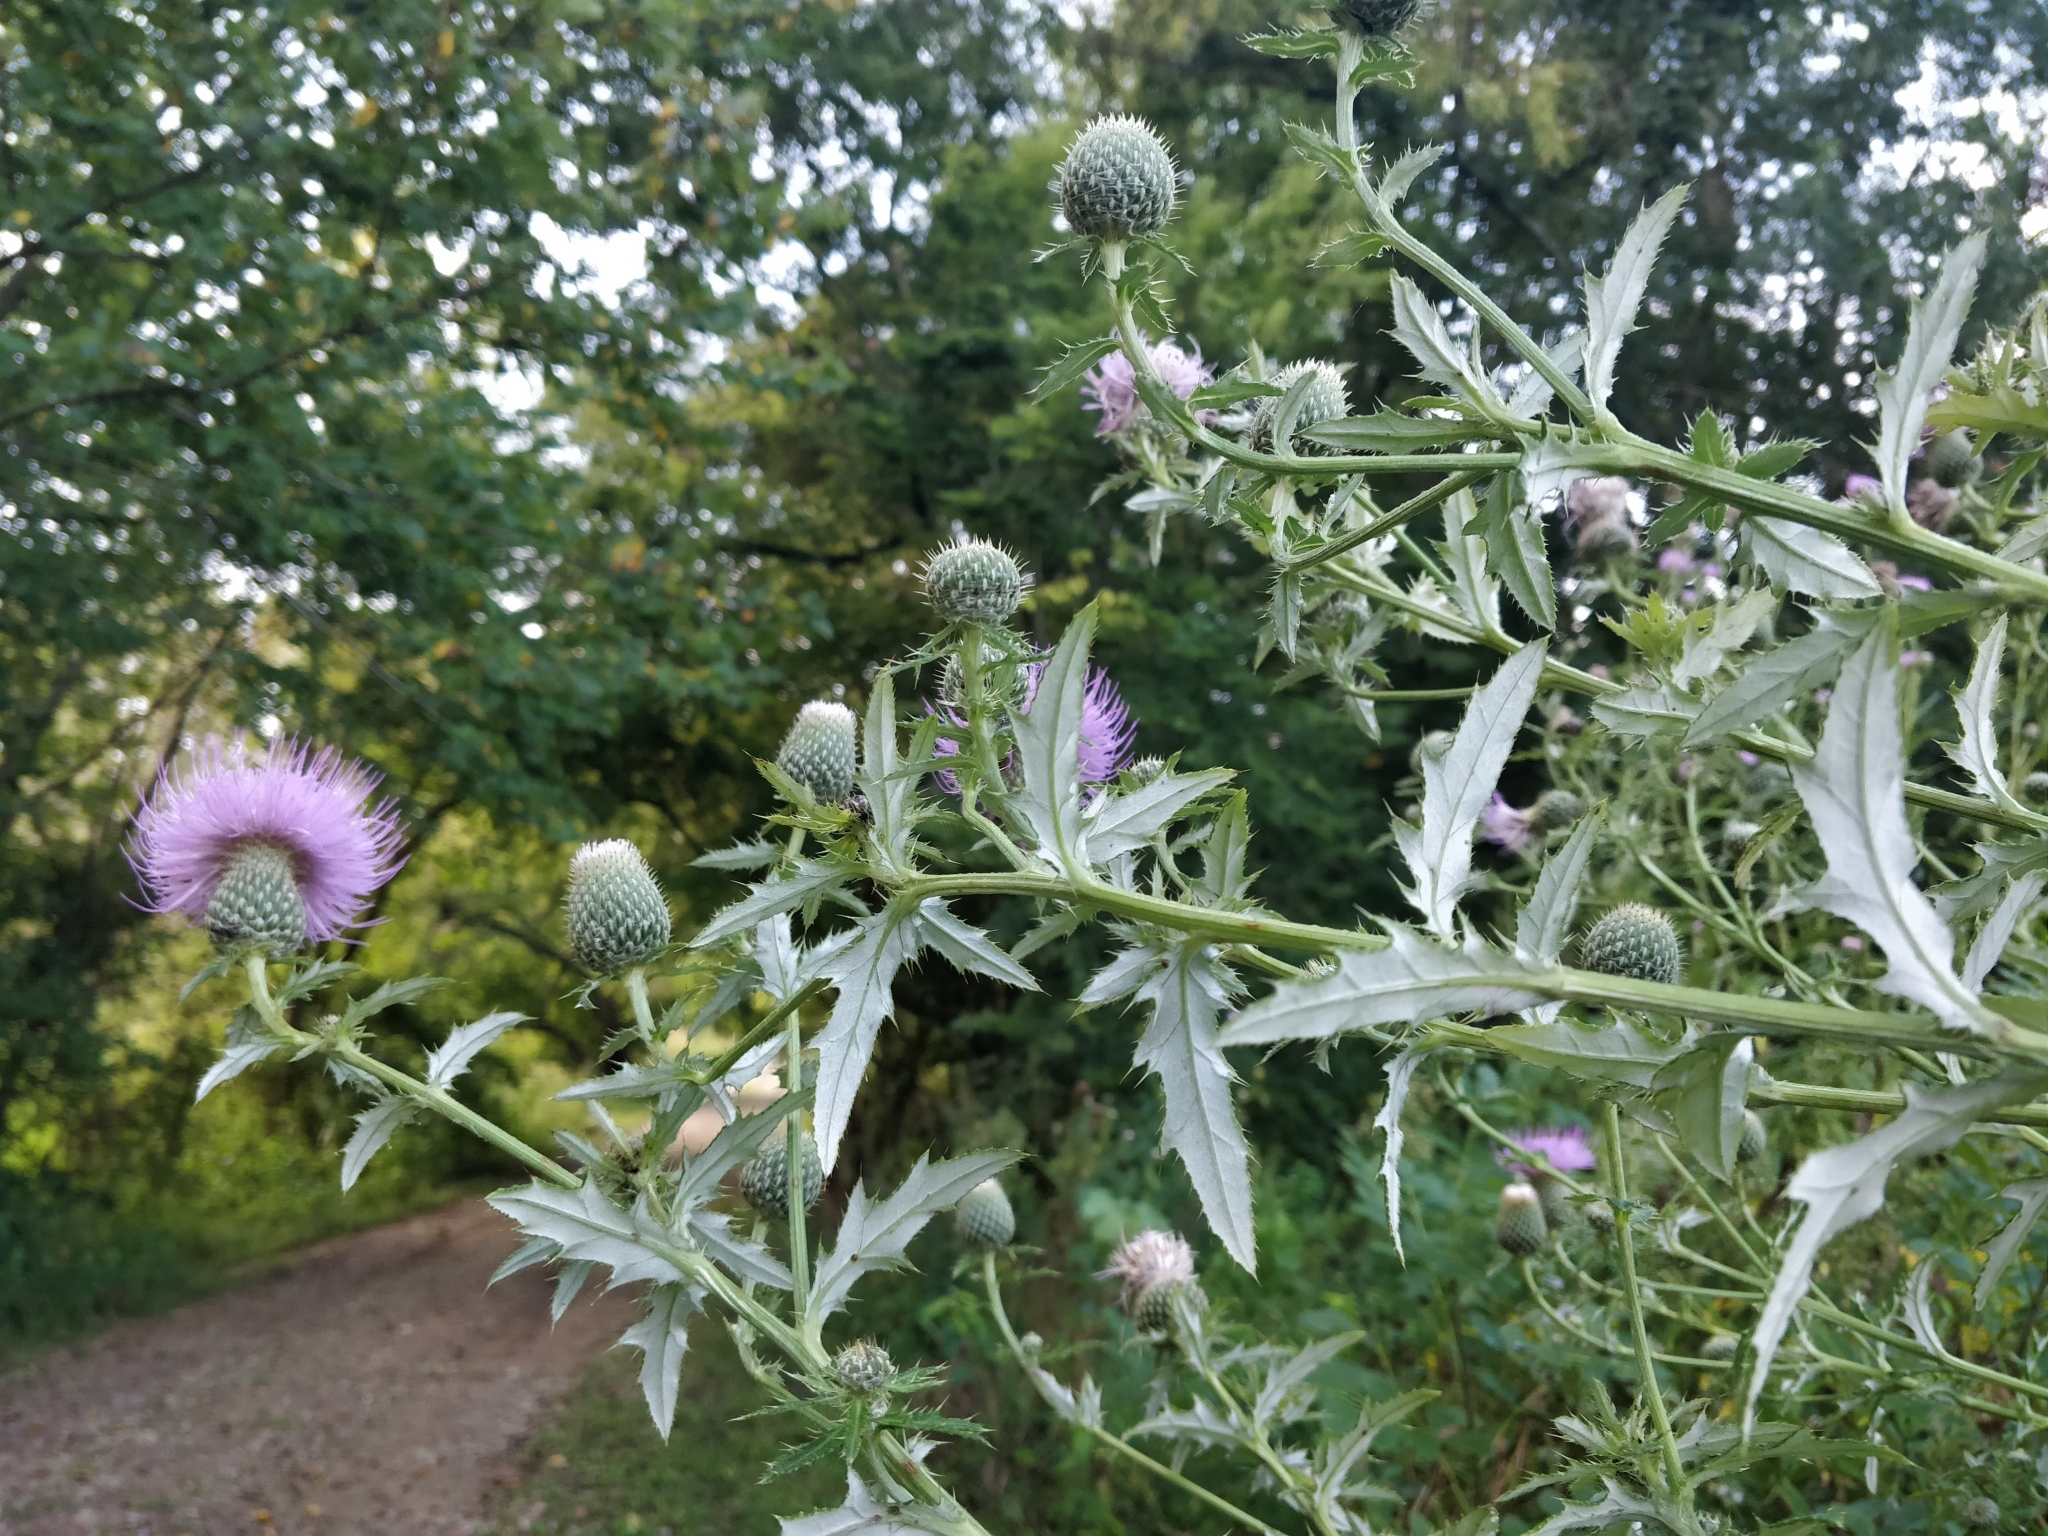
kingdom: Plantae
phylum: Tracheophyta
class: Magnoliopsida
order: Asterales
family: Asteraceae
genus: Cirsium
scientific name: Cirsium altissimum
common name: Roadside thistle
